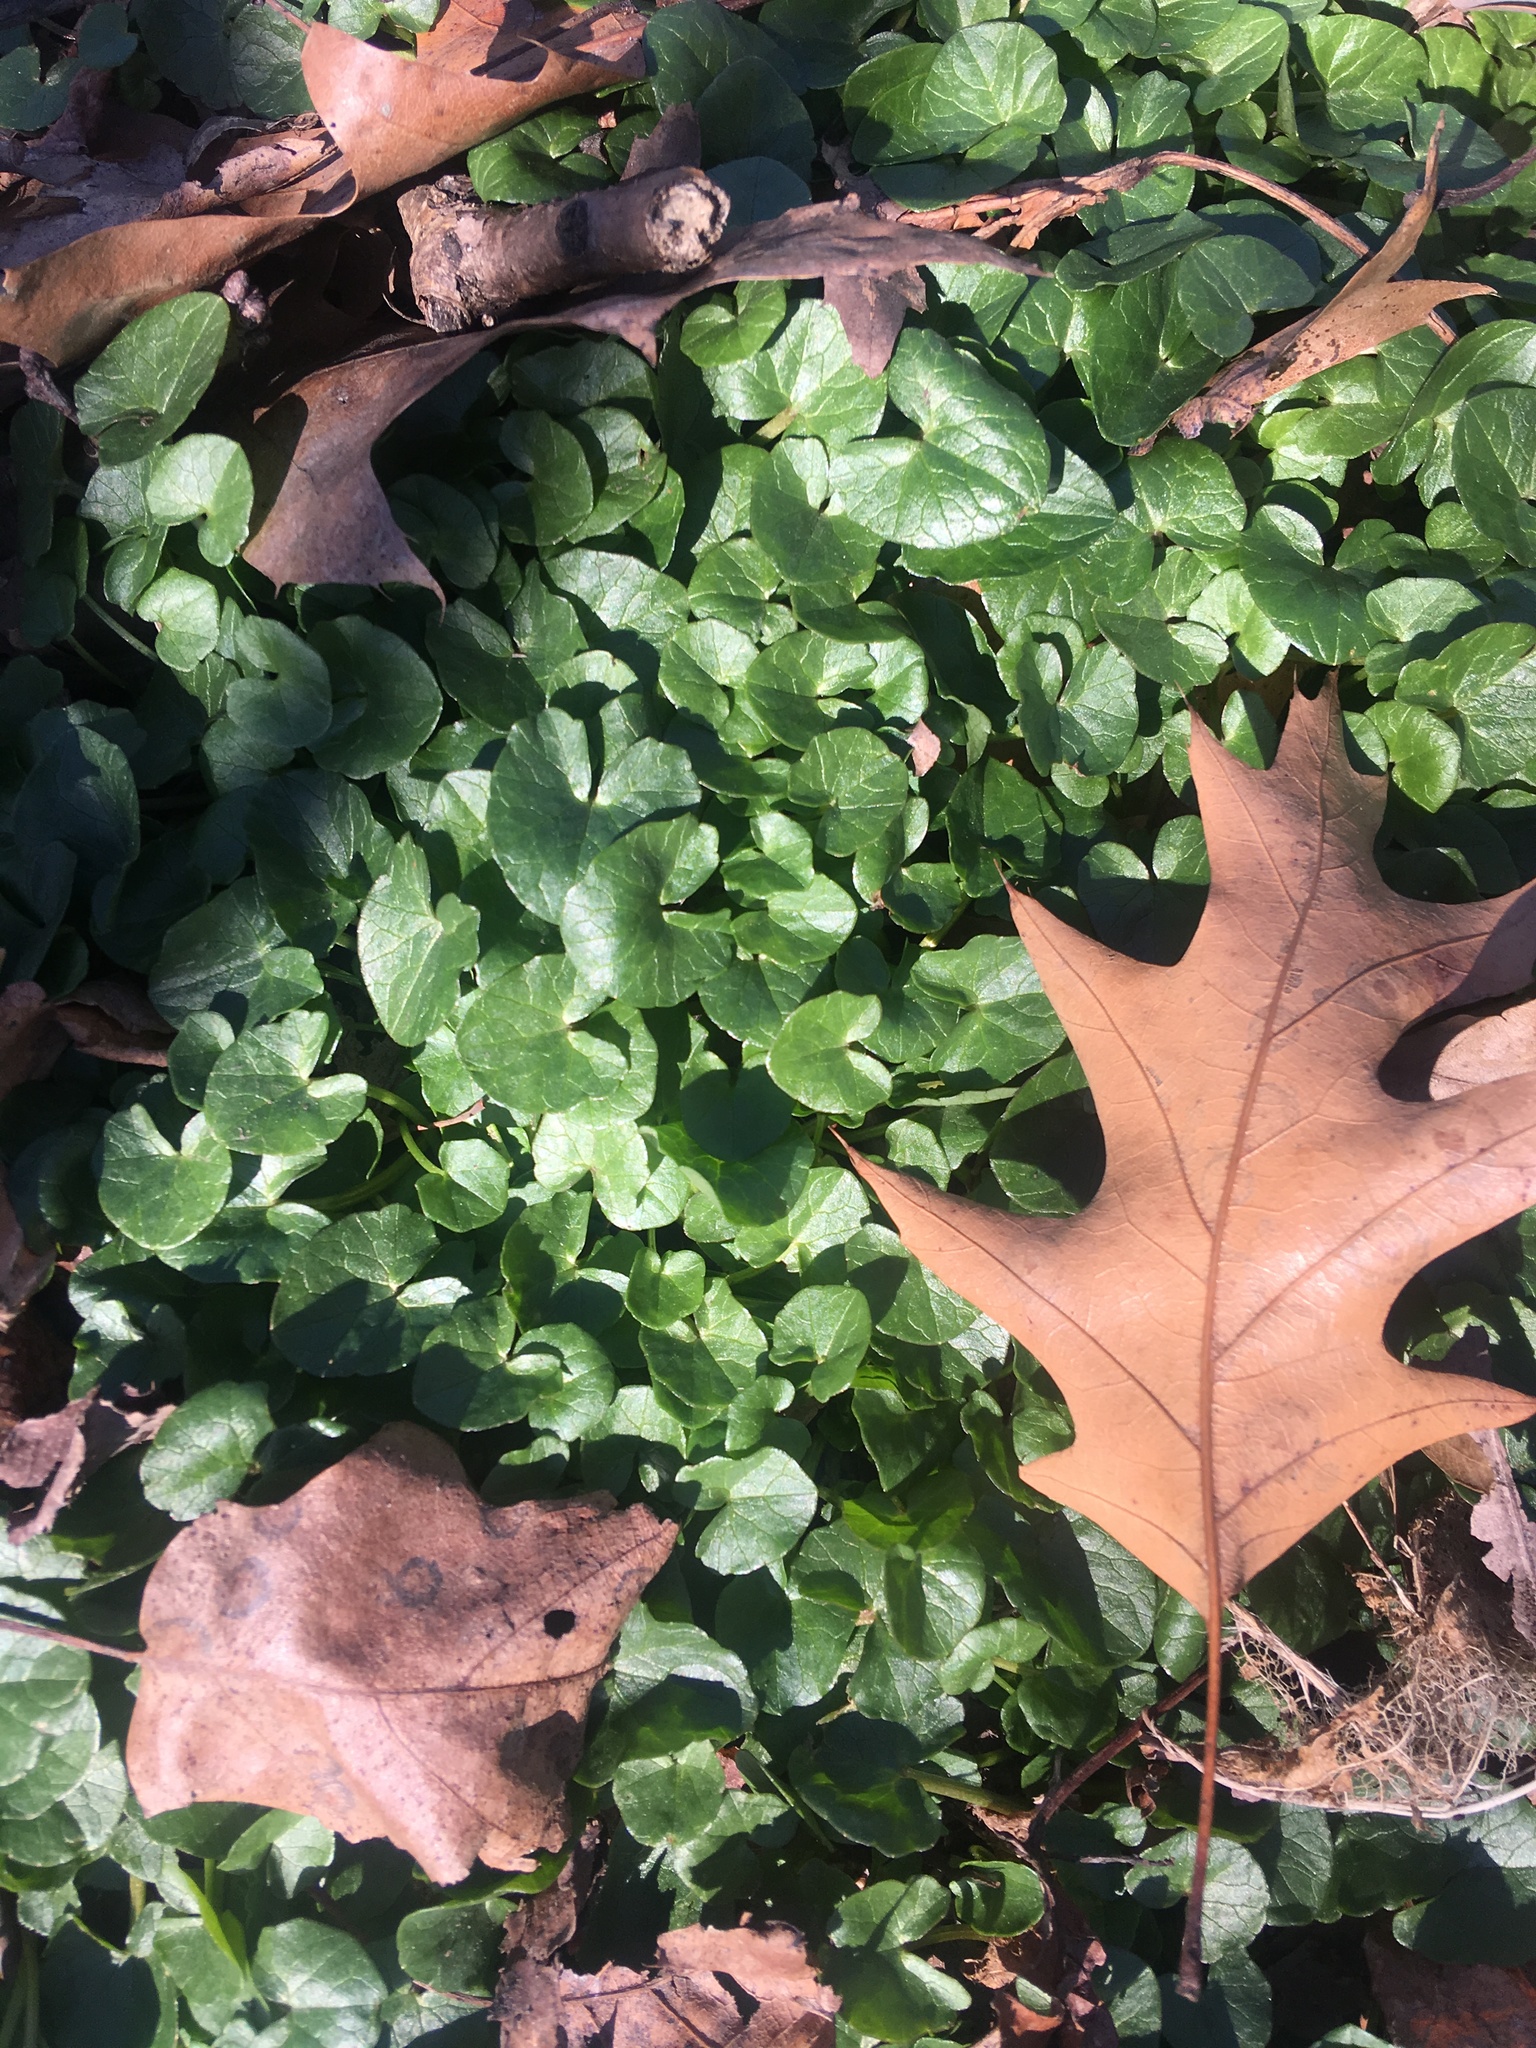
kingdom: Plantae
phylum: Tracheophyta
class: Magnoliopsida
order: Ranunculales
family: Ranunculaceae
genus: Ficaria
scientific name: Ficaria verna
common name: Lesser celandine
